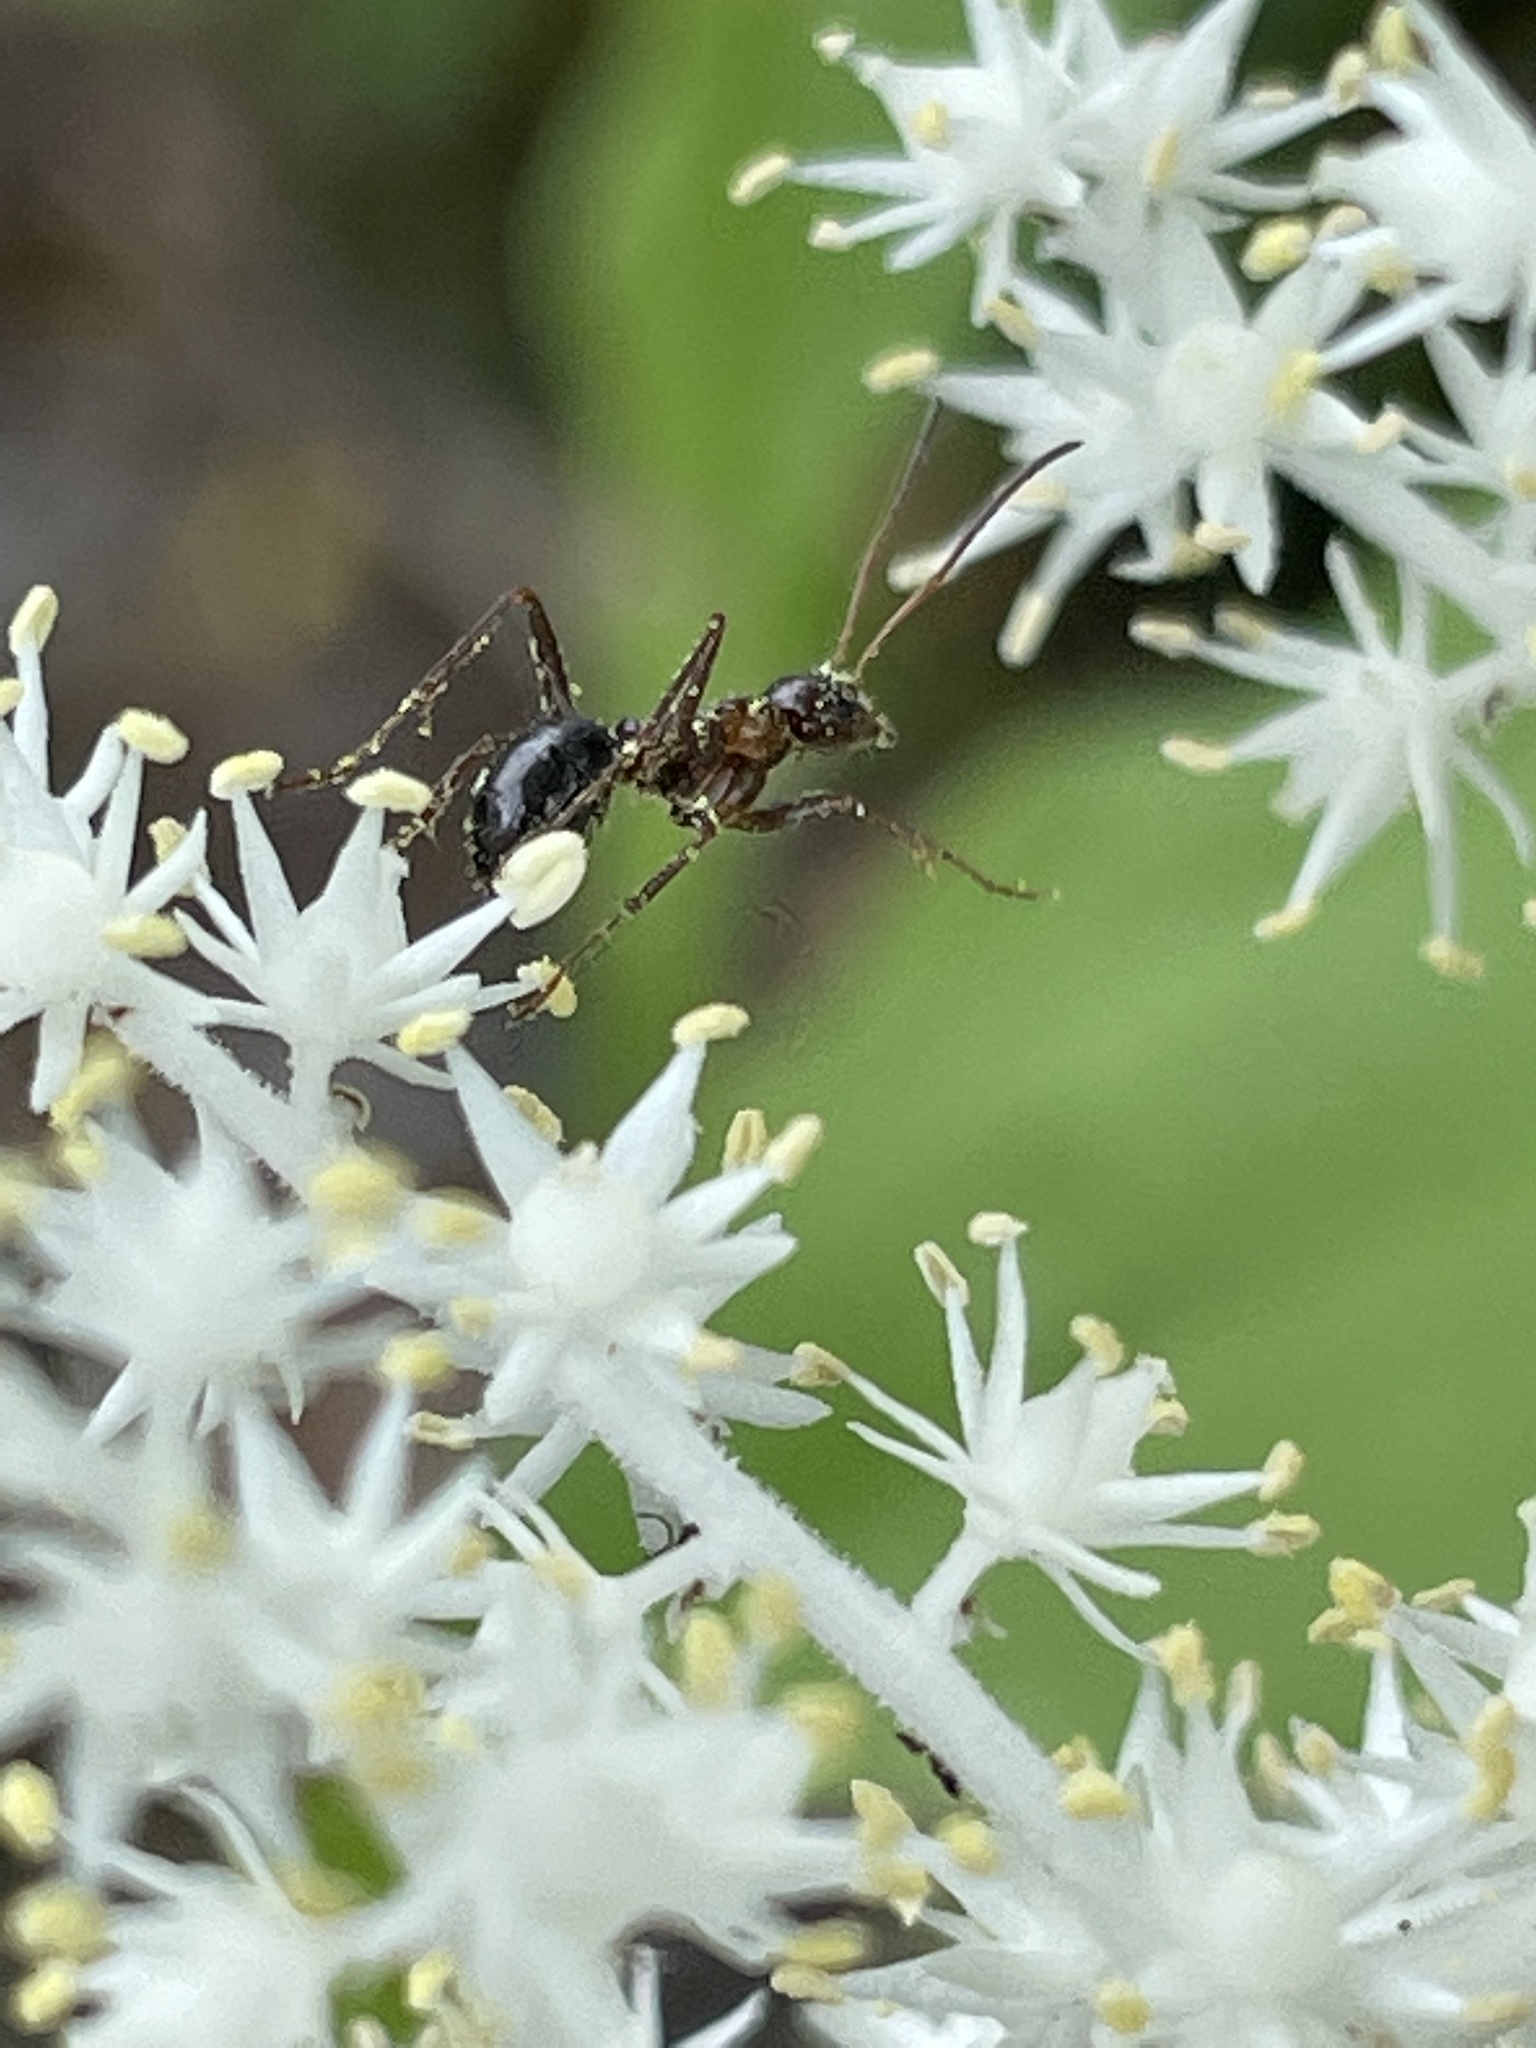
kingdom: Animalia
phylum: Arthropoda
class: Insecta
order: Hymenoptera
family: Formicidae
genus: Formica
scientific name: Formica
